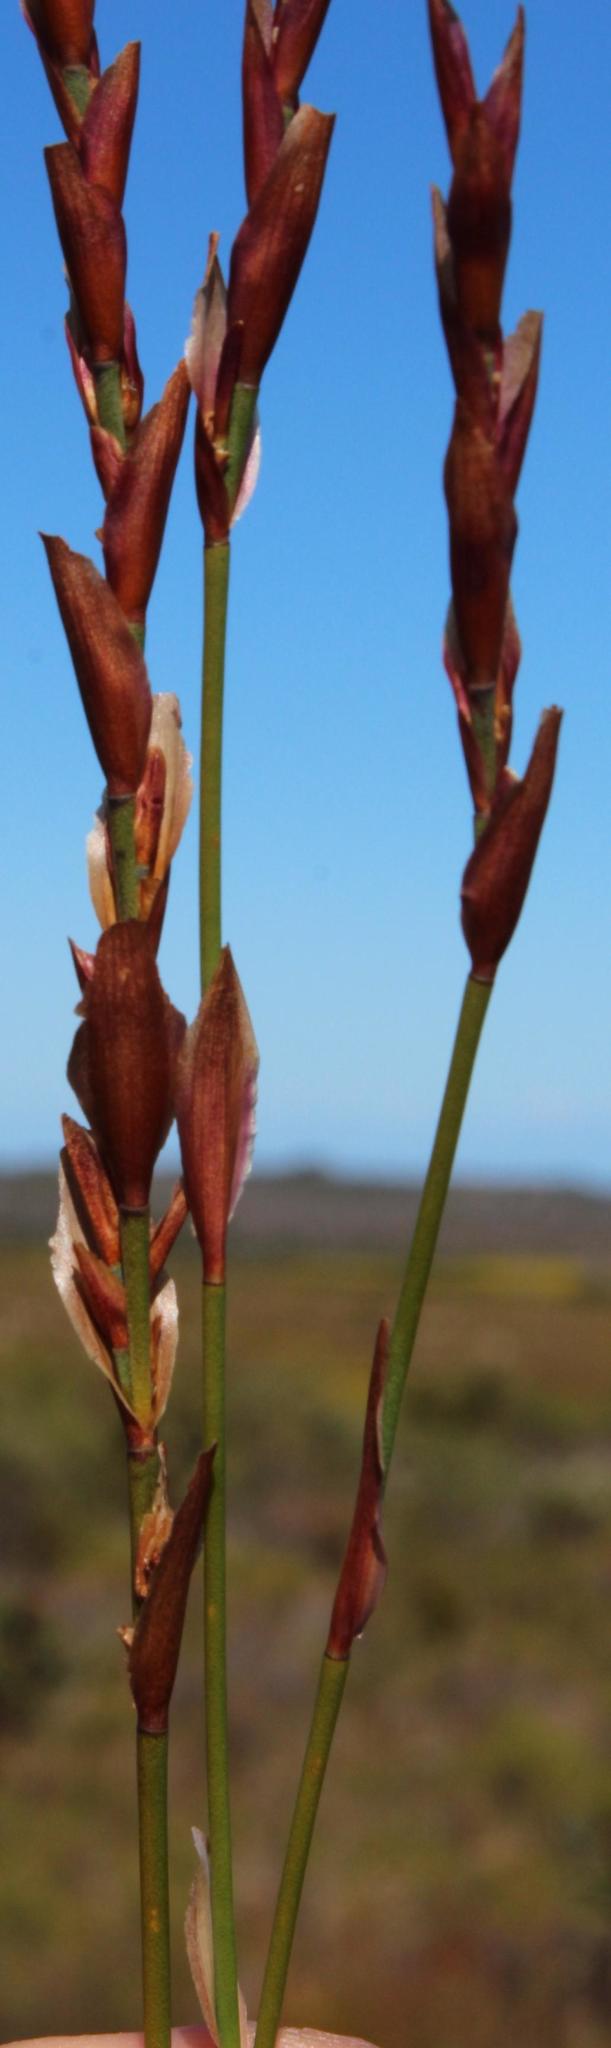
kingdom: Plantae
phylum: Tracheophyta
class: Liliopsida
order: Poales
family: Restionaceae
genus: Elegia
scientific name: Elegia stipularis
